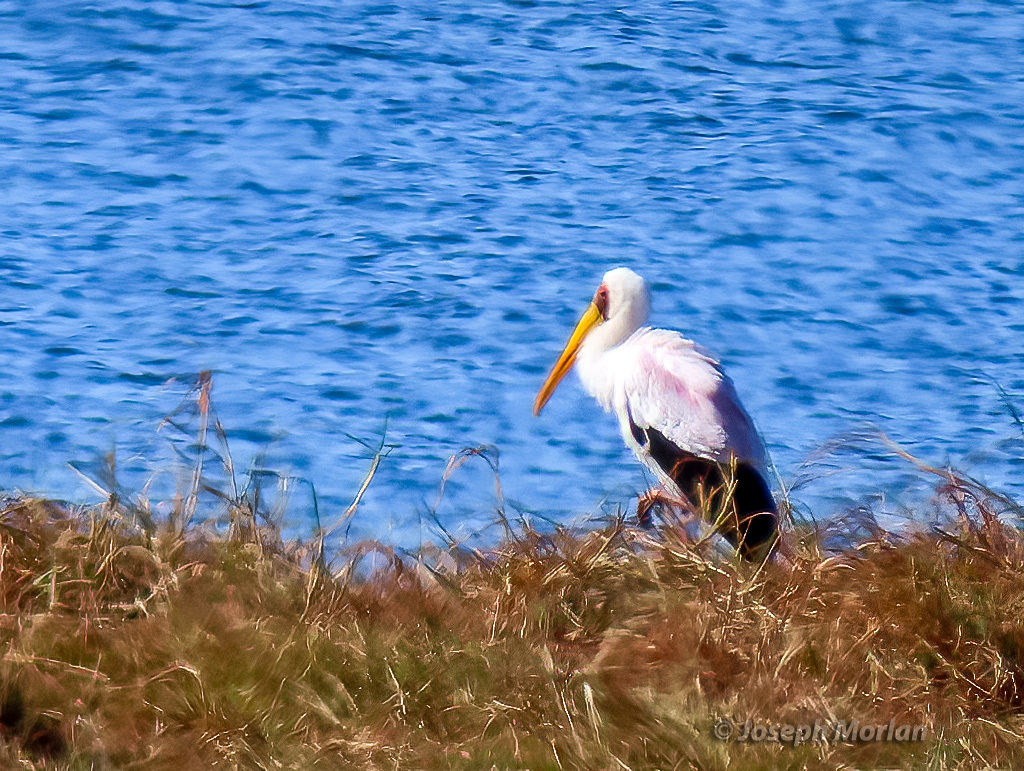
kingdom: Animalia
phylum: Chordata
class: Aves
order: Ciconiiformes
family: Ciconiidae
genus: Mycteria
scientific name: Mycteria ibis
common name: Yellow-billed stork
